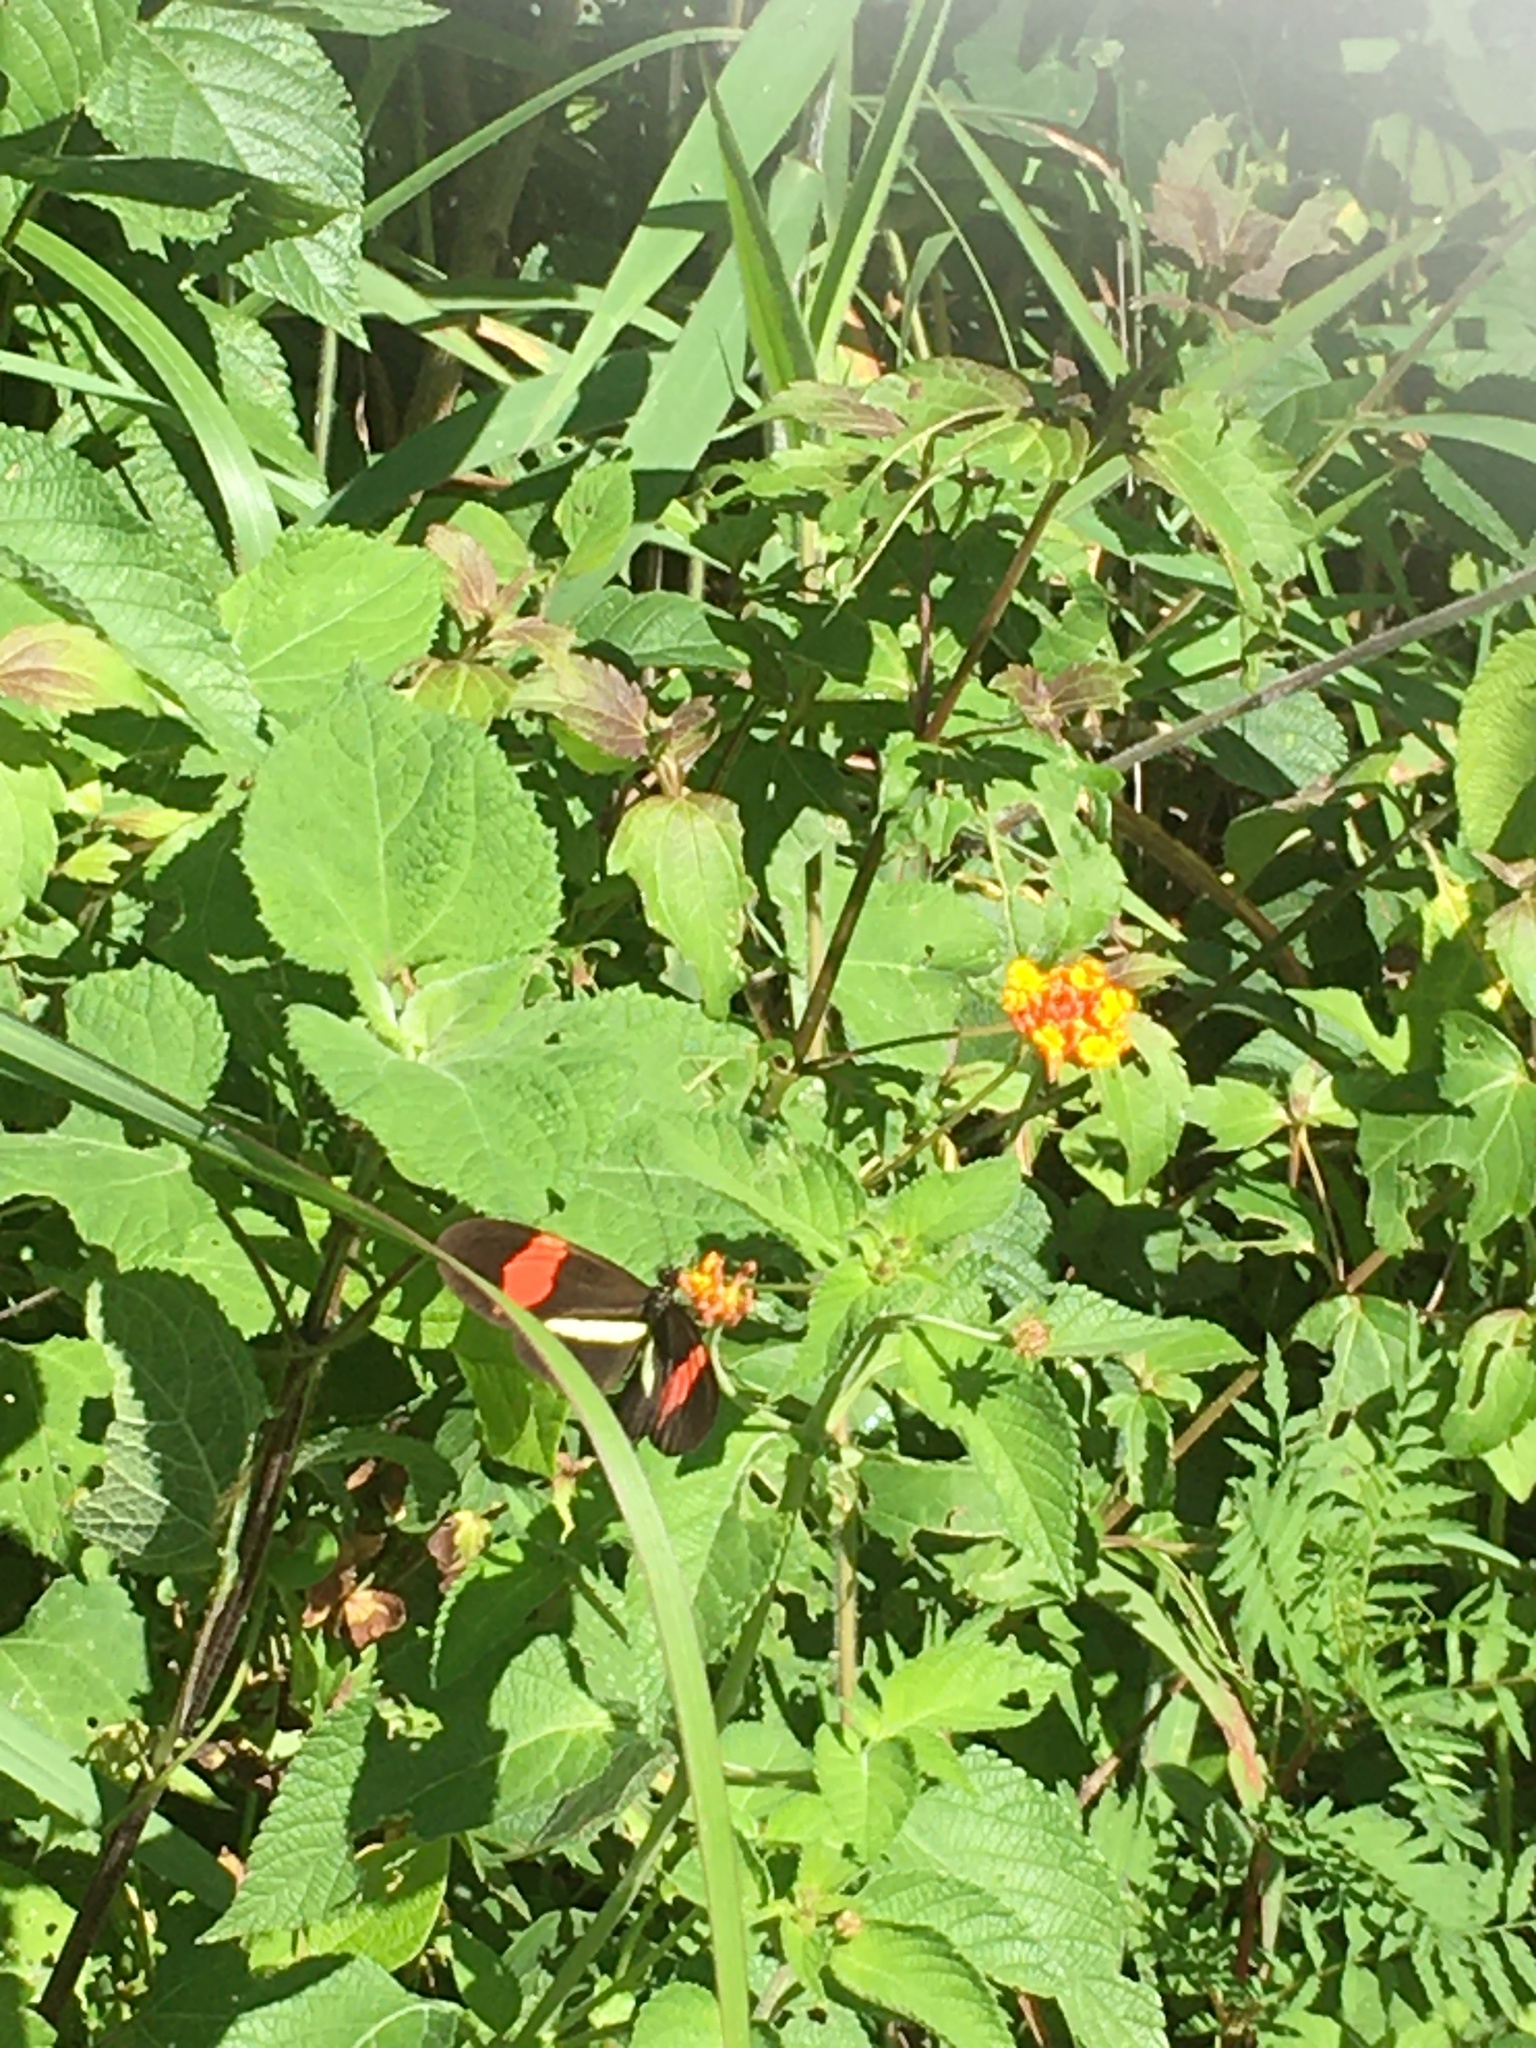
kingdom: Animalia
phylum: Arthropoda
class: Insecta
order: Lepidoptera
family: Nymphalidae
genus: Heliconius
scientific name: Heliconius erato
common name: Common patch longwing
